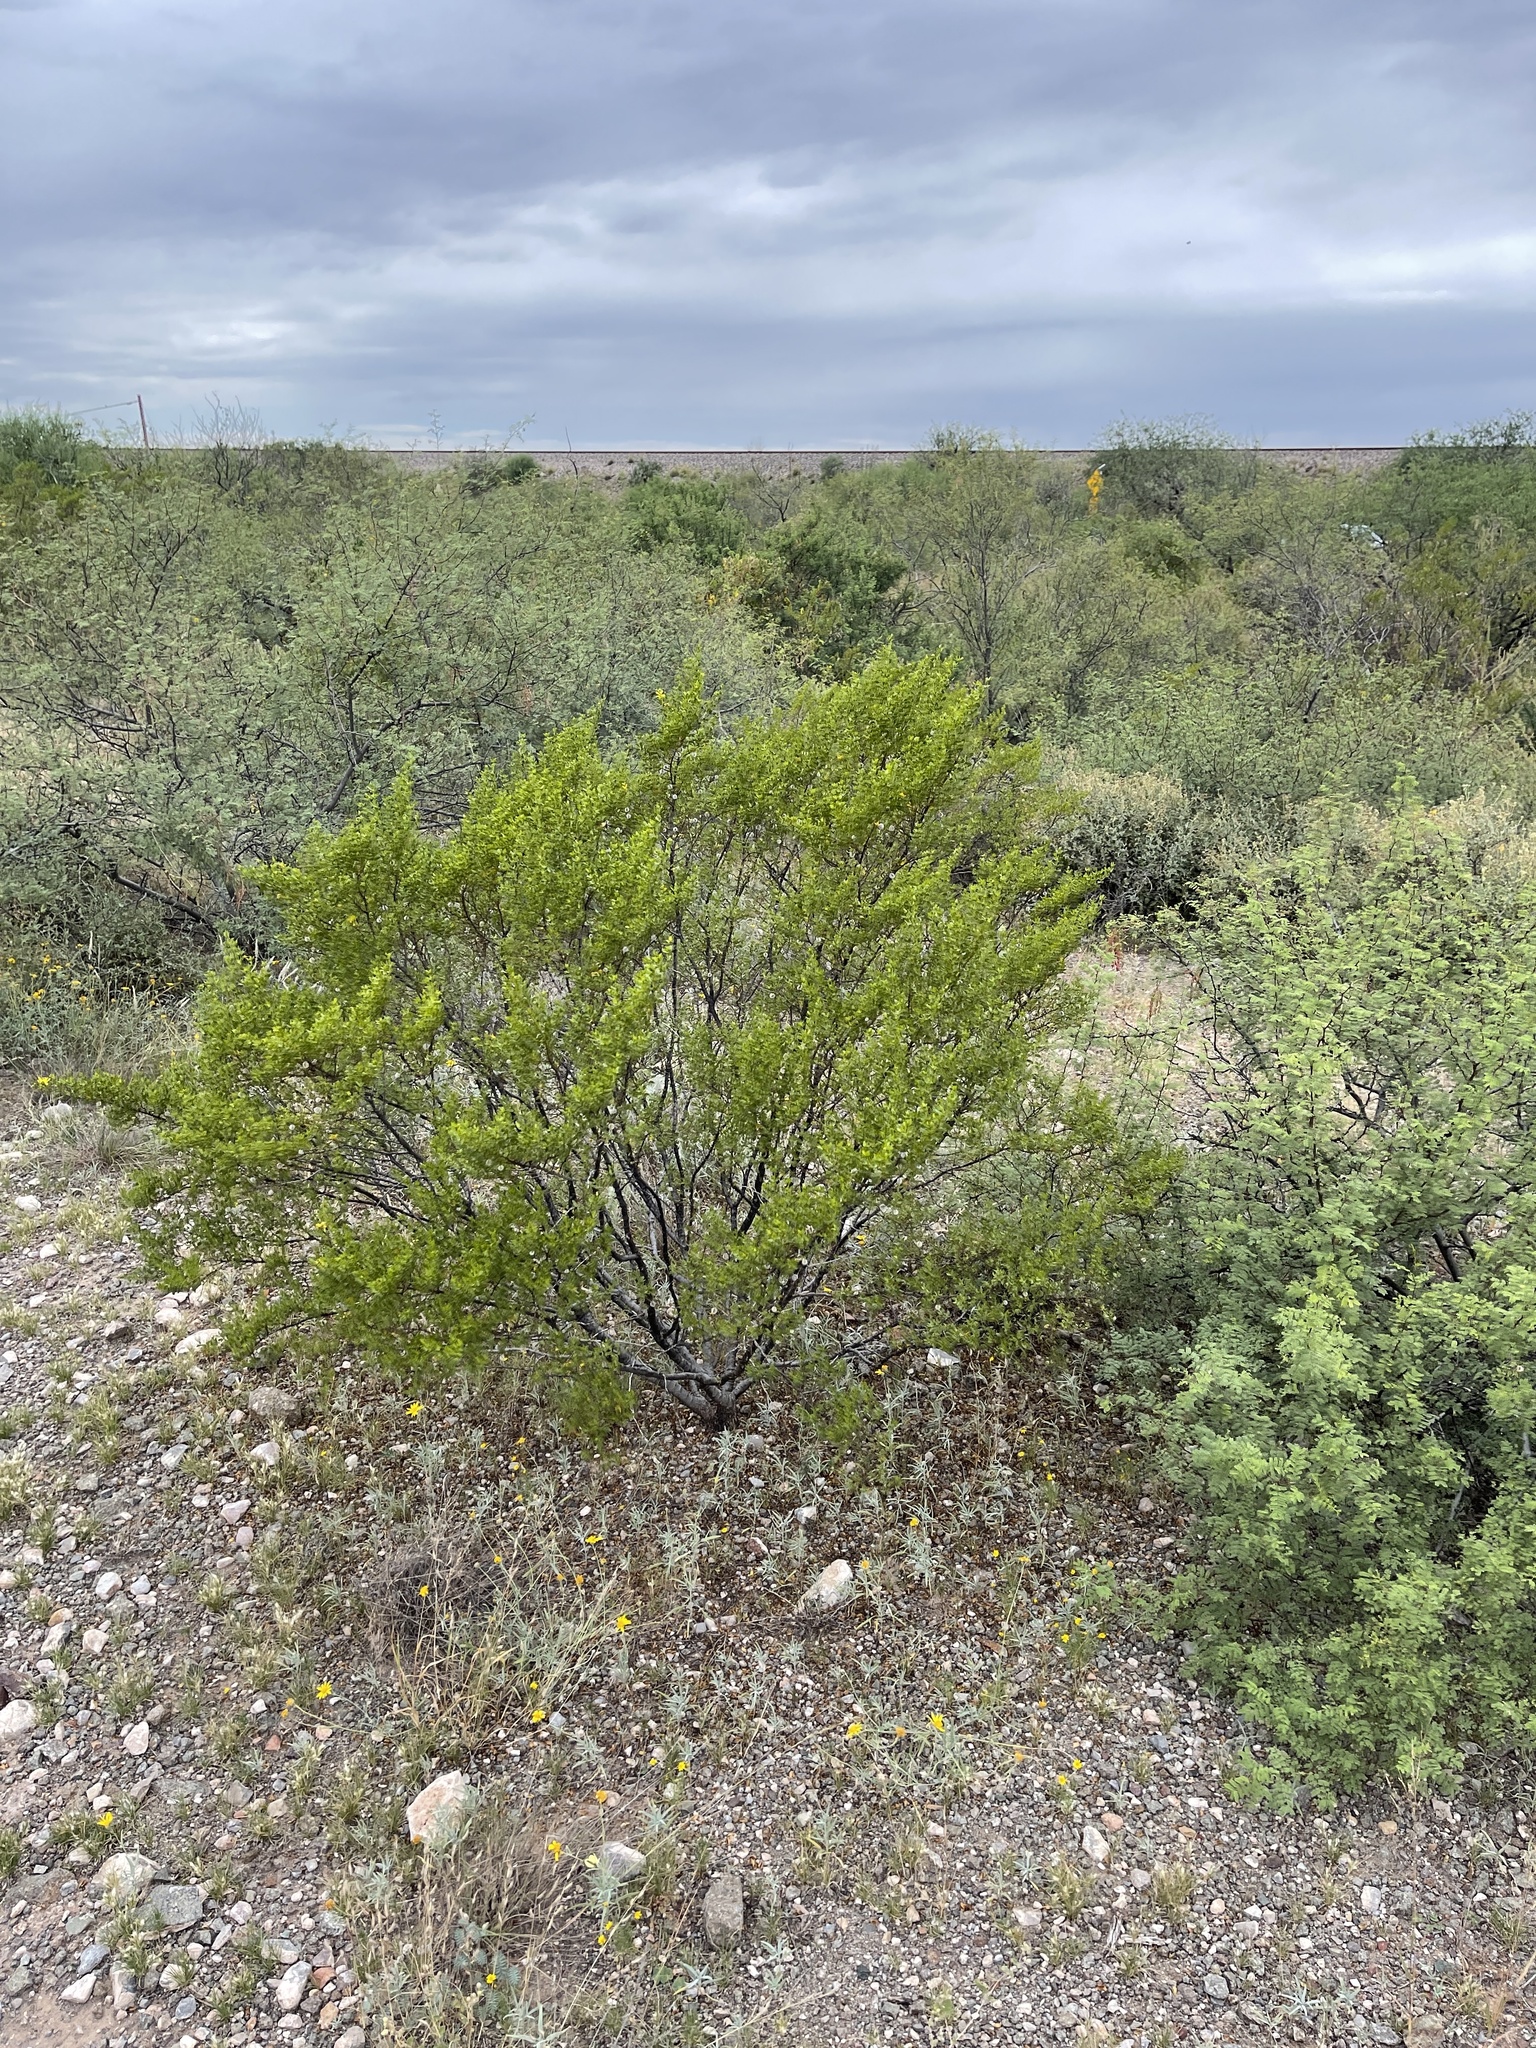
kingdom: Plantae
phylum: Tracheophyta
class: Magnoliopsida
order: Zygophyllales
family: Zygophyllaceae
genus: Larrea
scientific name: Larrea tridentata
